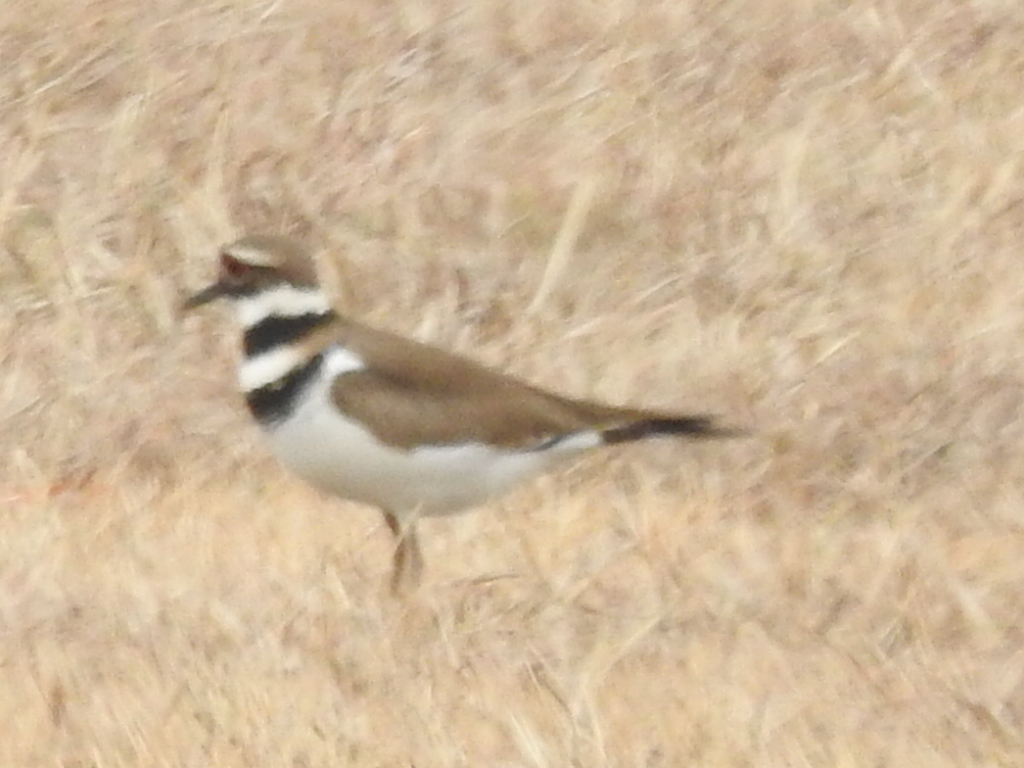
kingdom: Animalia
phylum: Chordata
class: Aves
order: Charadriiformes
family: Charadriidae
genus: Charadrius
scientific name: Charadrius vociferus
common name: Killdeer
